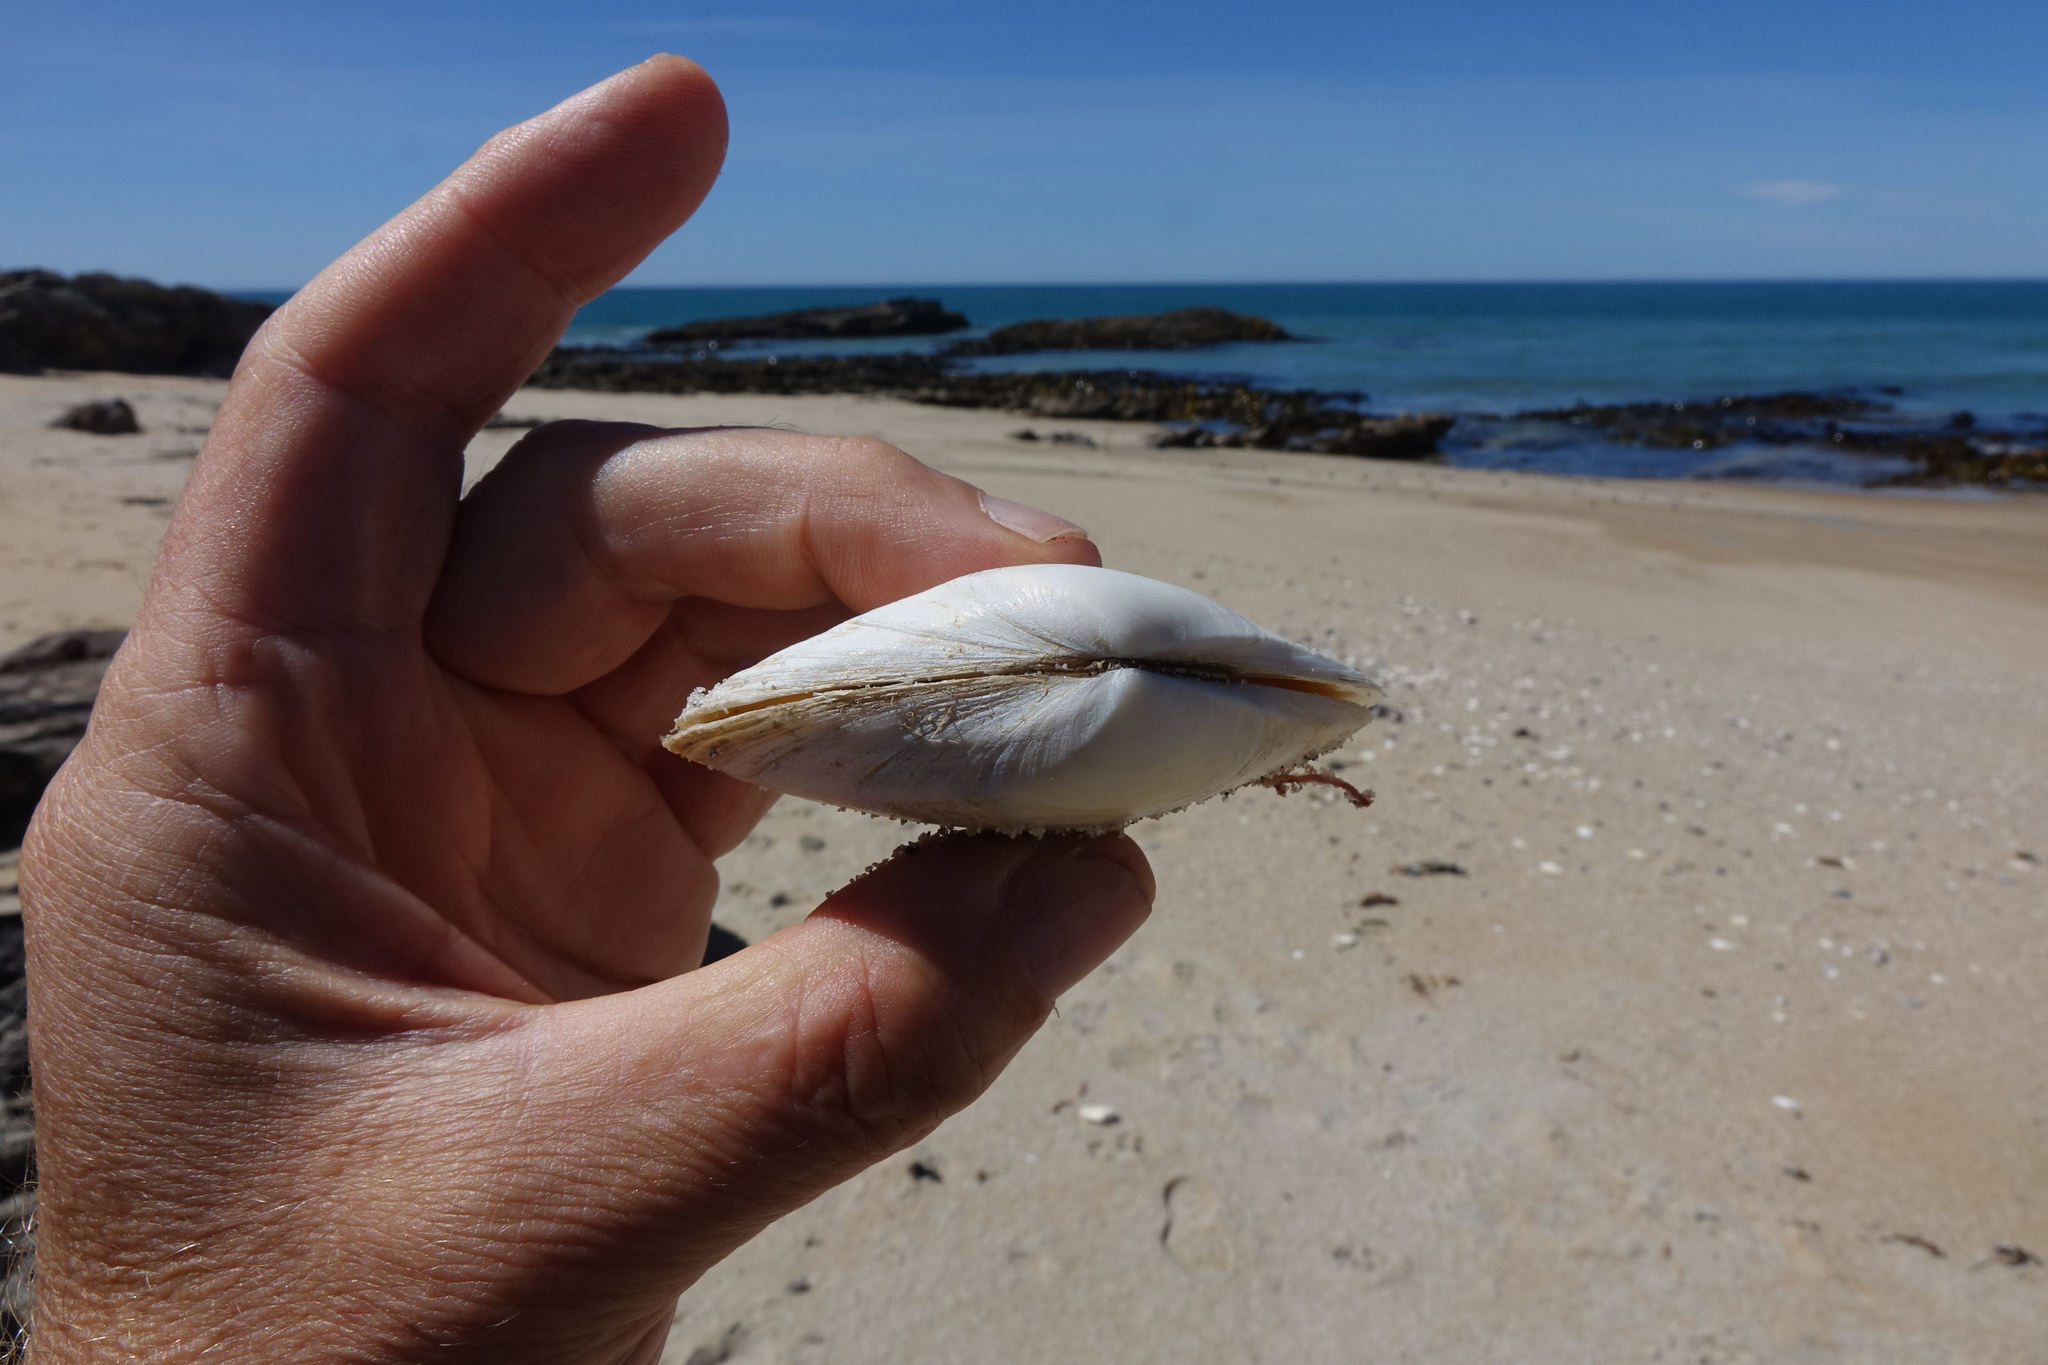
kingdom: Animalia
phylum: Mollusca
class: Bivalvia
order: Venerida
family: Mesodesmatidae
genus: Paphies
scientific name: Paphies donacina
